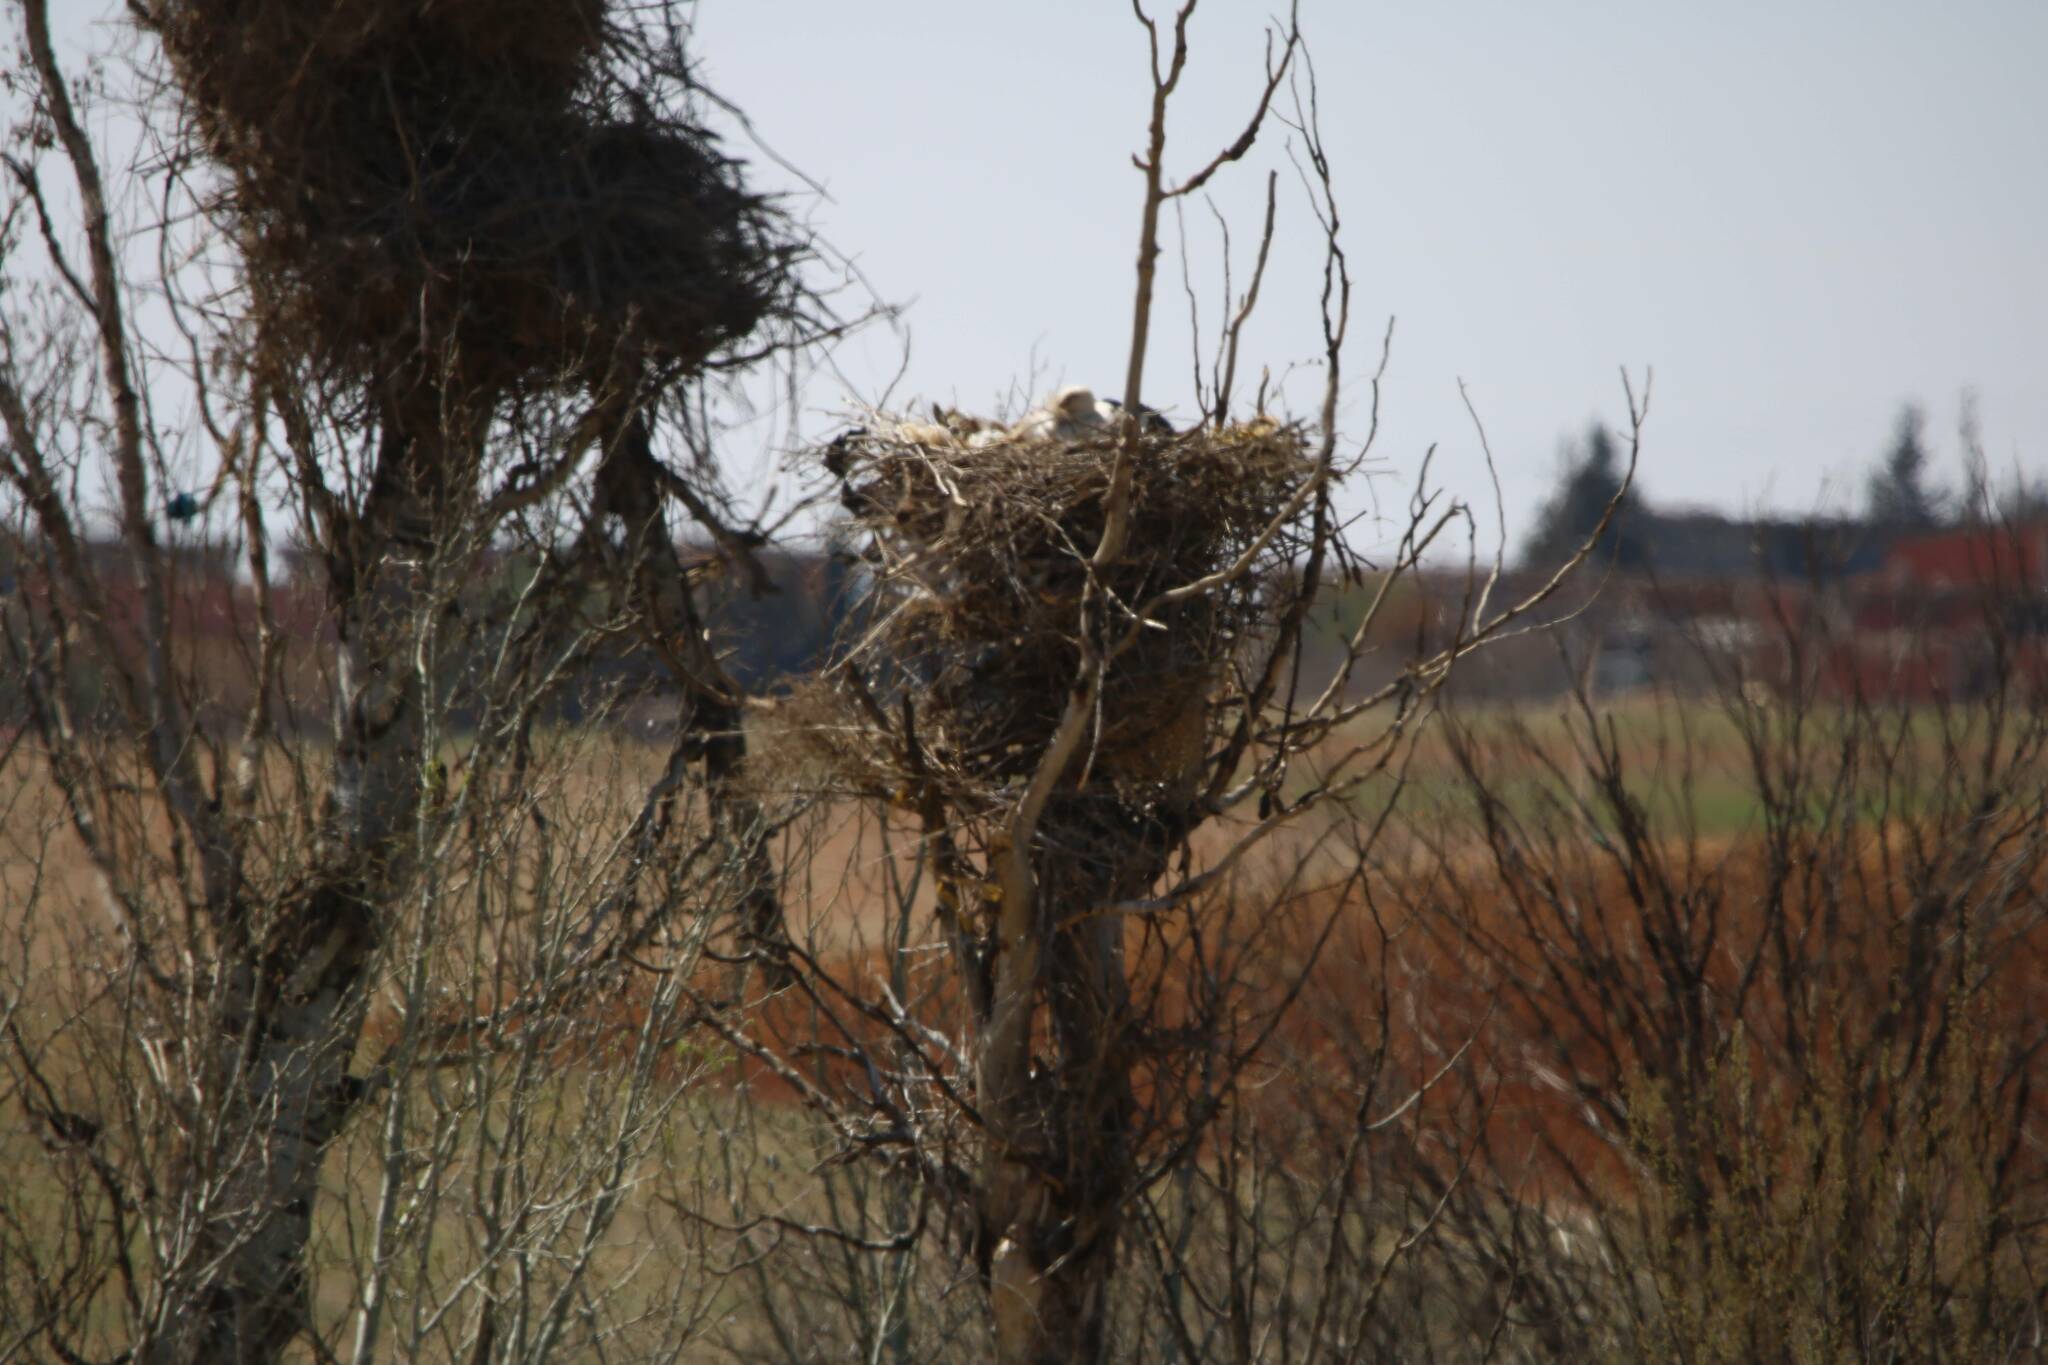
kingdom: Animalia
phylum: Chordata
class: Aves
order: Ciconiiformes
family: Ciconiidae
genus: Ciconia
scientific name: Ciconia ciconia
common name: White stork
